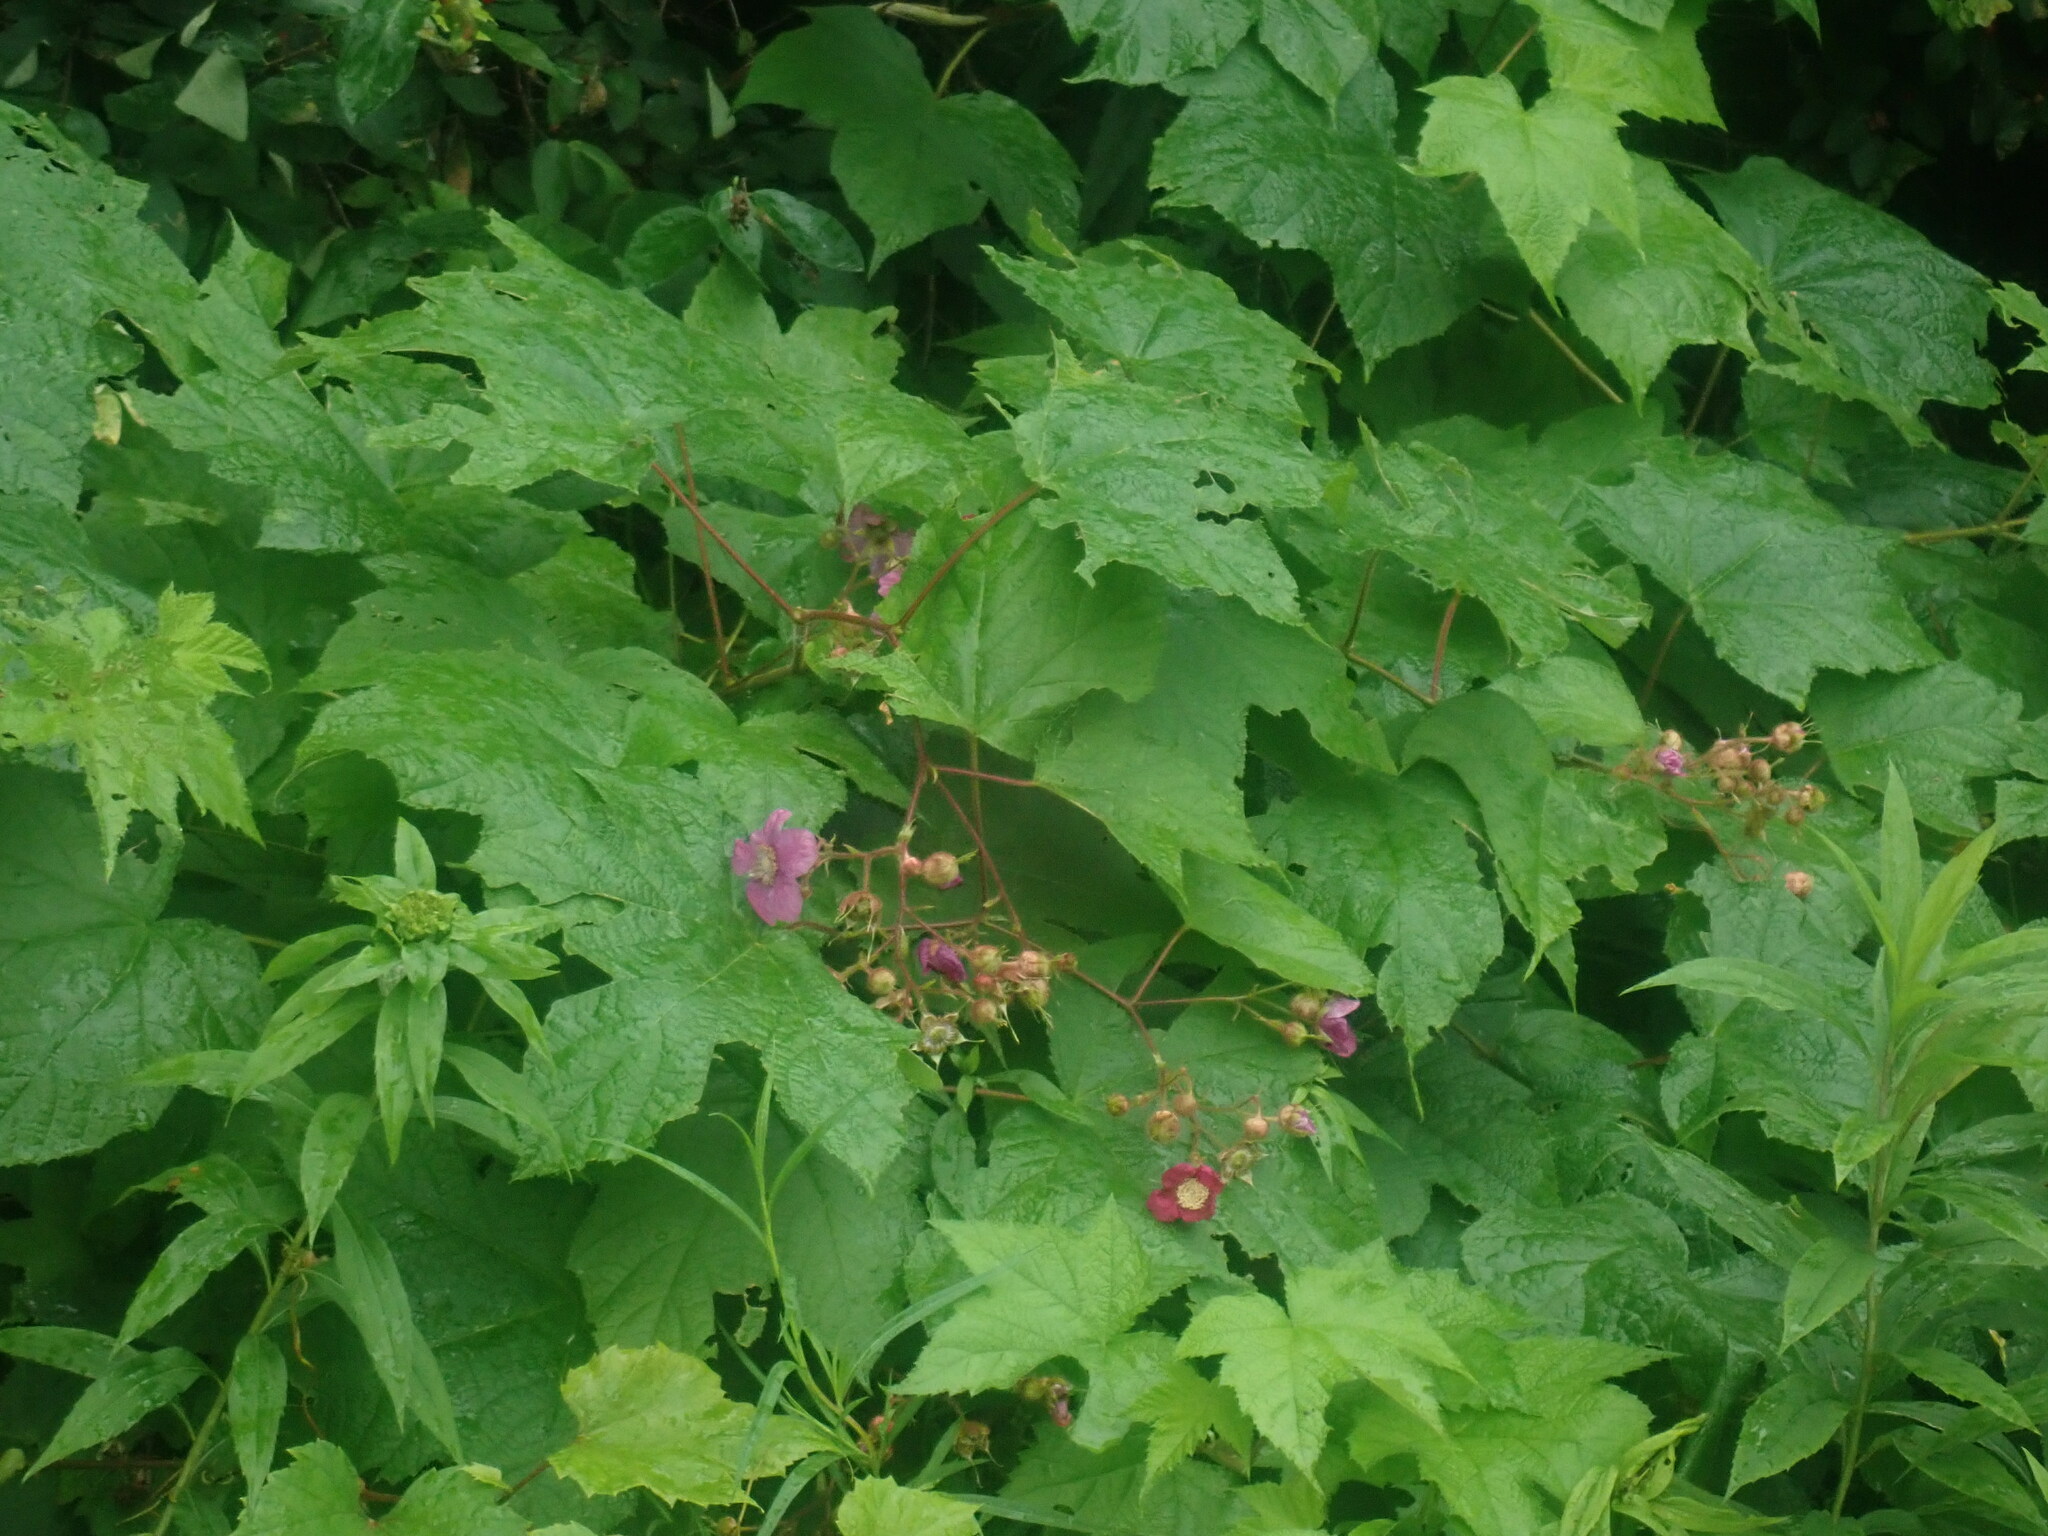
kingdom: Plantae
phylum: Tracheophyta
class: Magnoliopsida
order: Rosales
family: Rosaceae
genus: Rubus
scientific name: Rubus odoratus
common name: Purple-flowered raspberry
